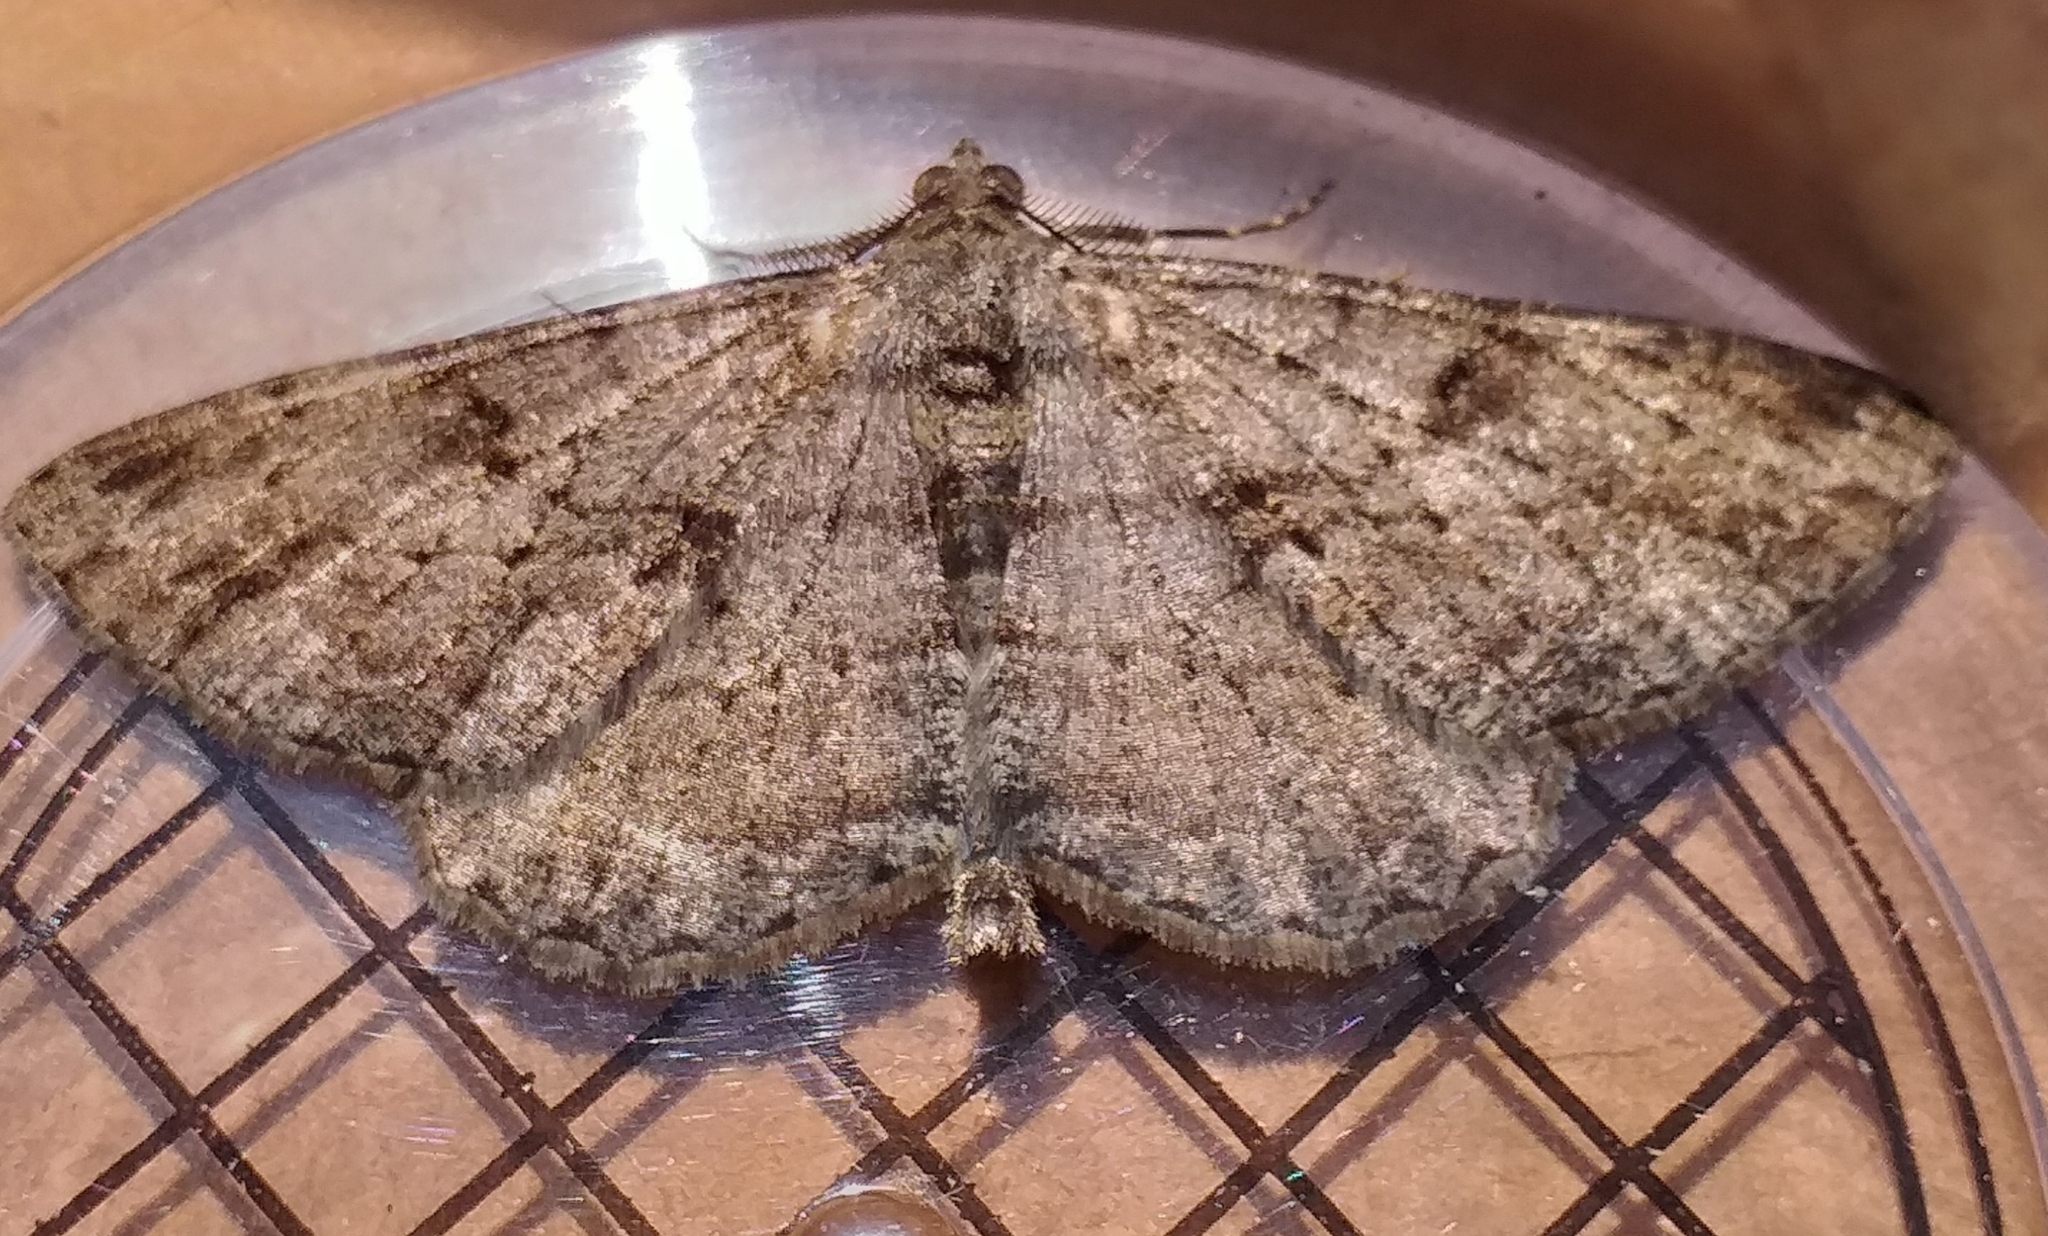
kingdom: Animalia
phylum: Arthropoda
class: Insecta
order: Lepidoptera
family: Geometridae
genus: Peribatodes
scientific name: Peribatodes rhomboidaria
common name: Willow beauty
